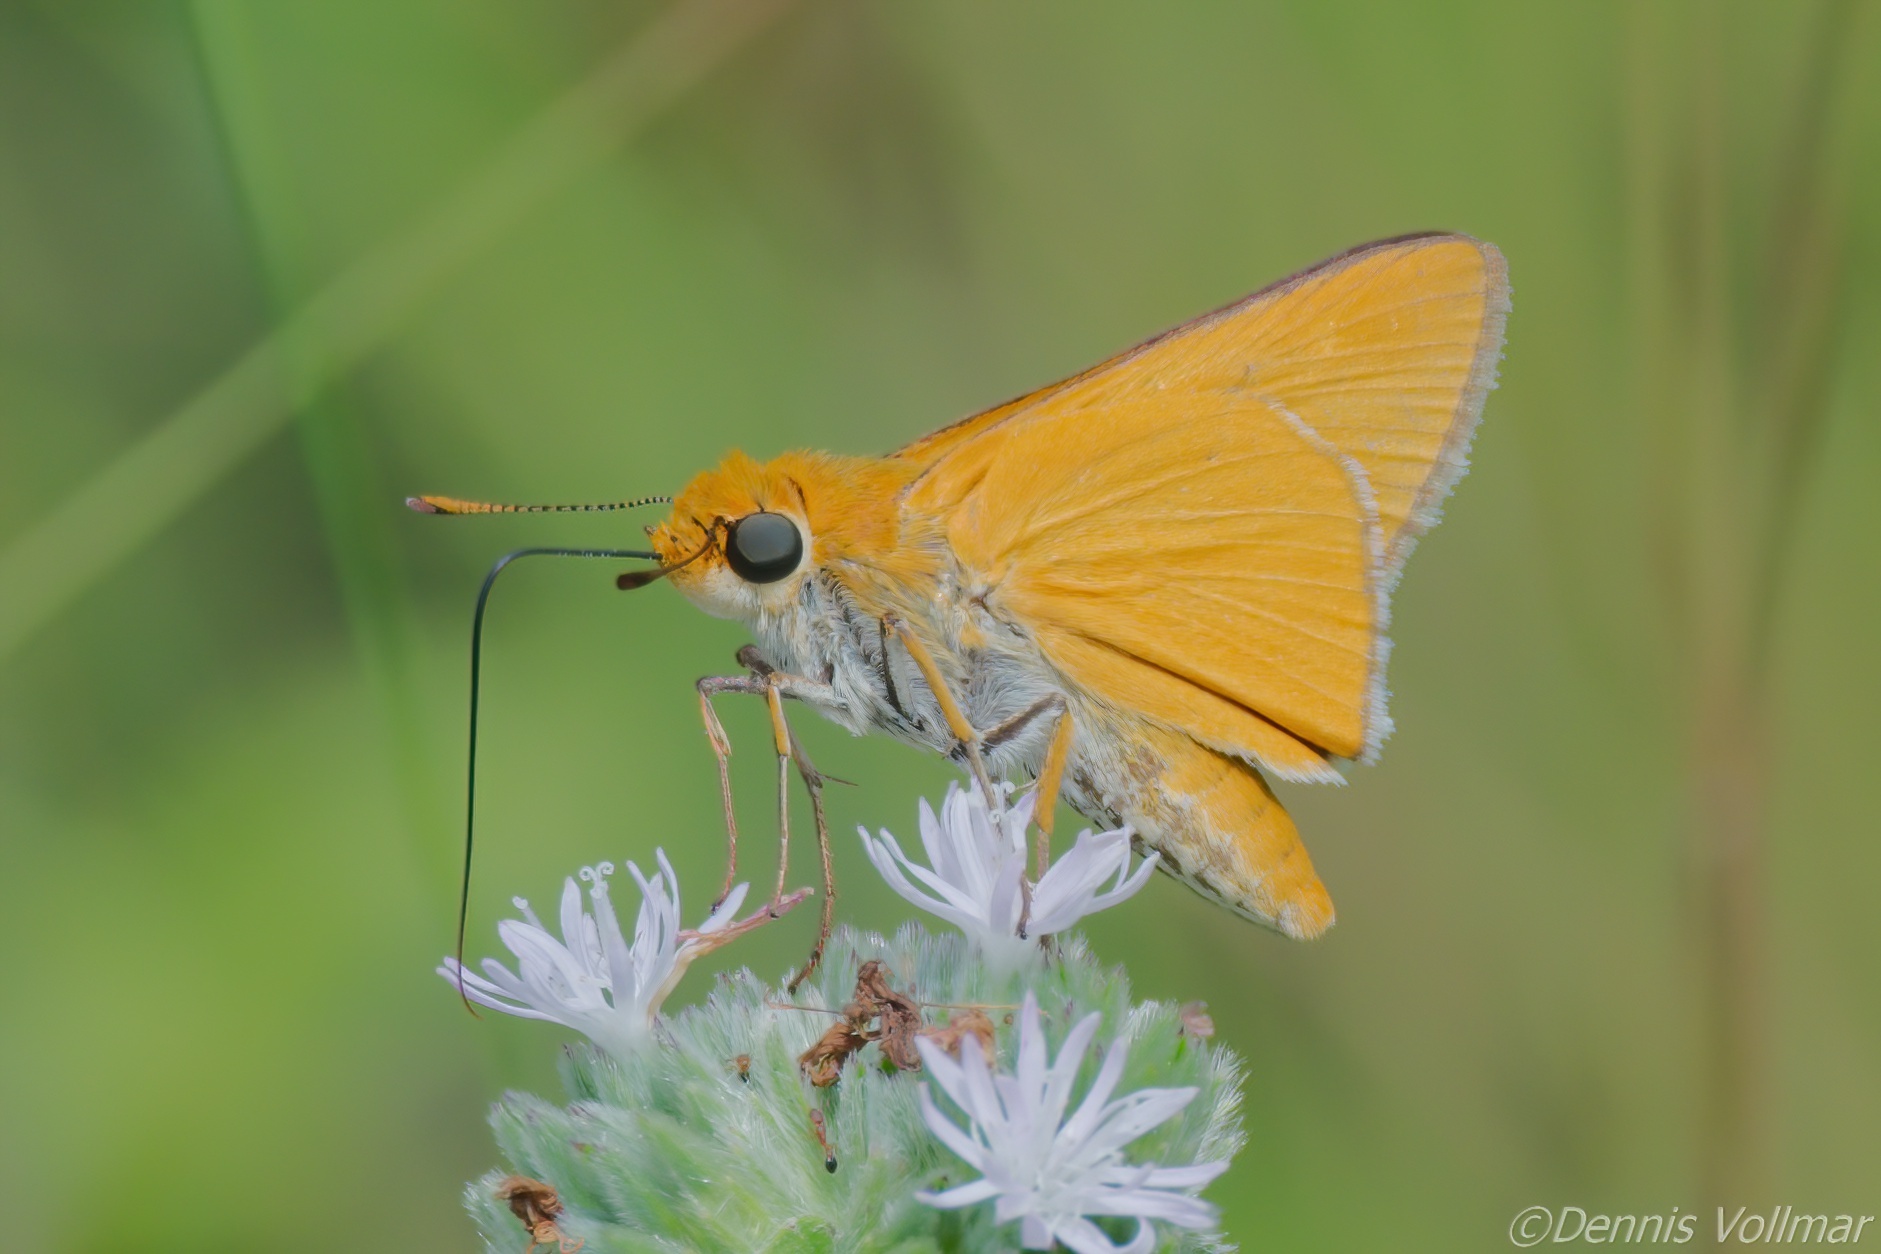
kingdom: Animalia
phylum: Arthropoda
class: Insecta
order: Lepidoptera
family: Hesperiidae
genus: Euphyes
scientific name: Euphyes arpa
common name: Palmetto skipper
